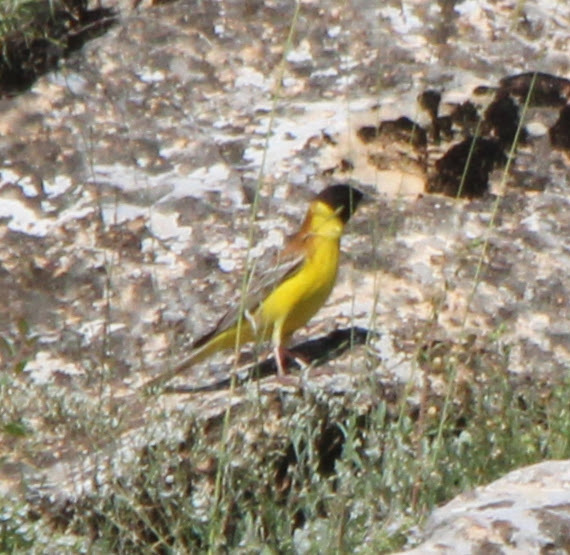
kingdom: Animalia
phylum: Chordata
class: Aves
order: Passeriformes
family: Emberizidae
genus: Emberiza
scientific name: Emberiza melanocephala
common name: Black-headed bunting
